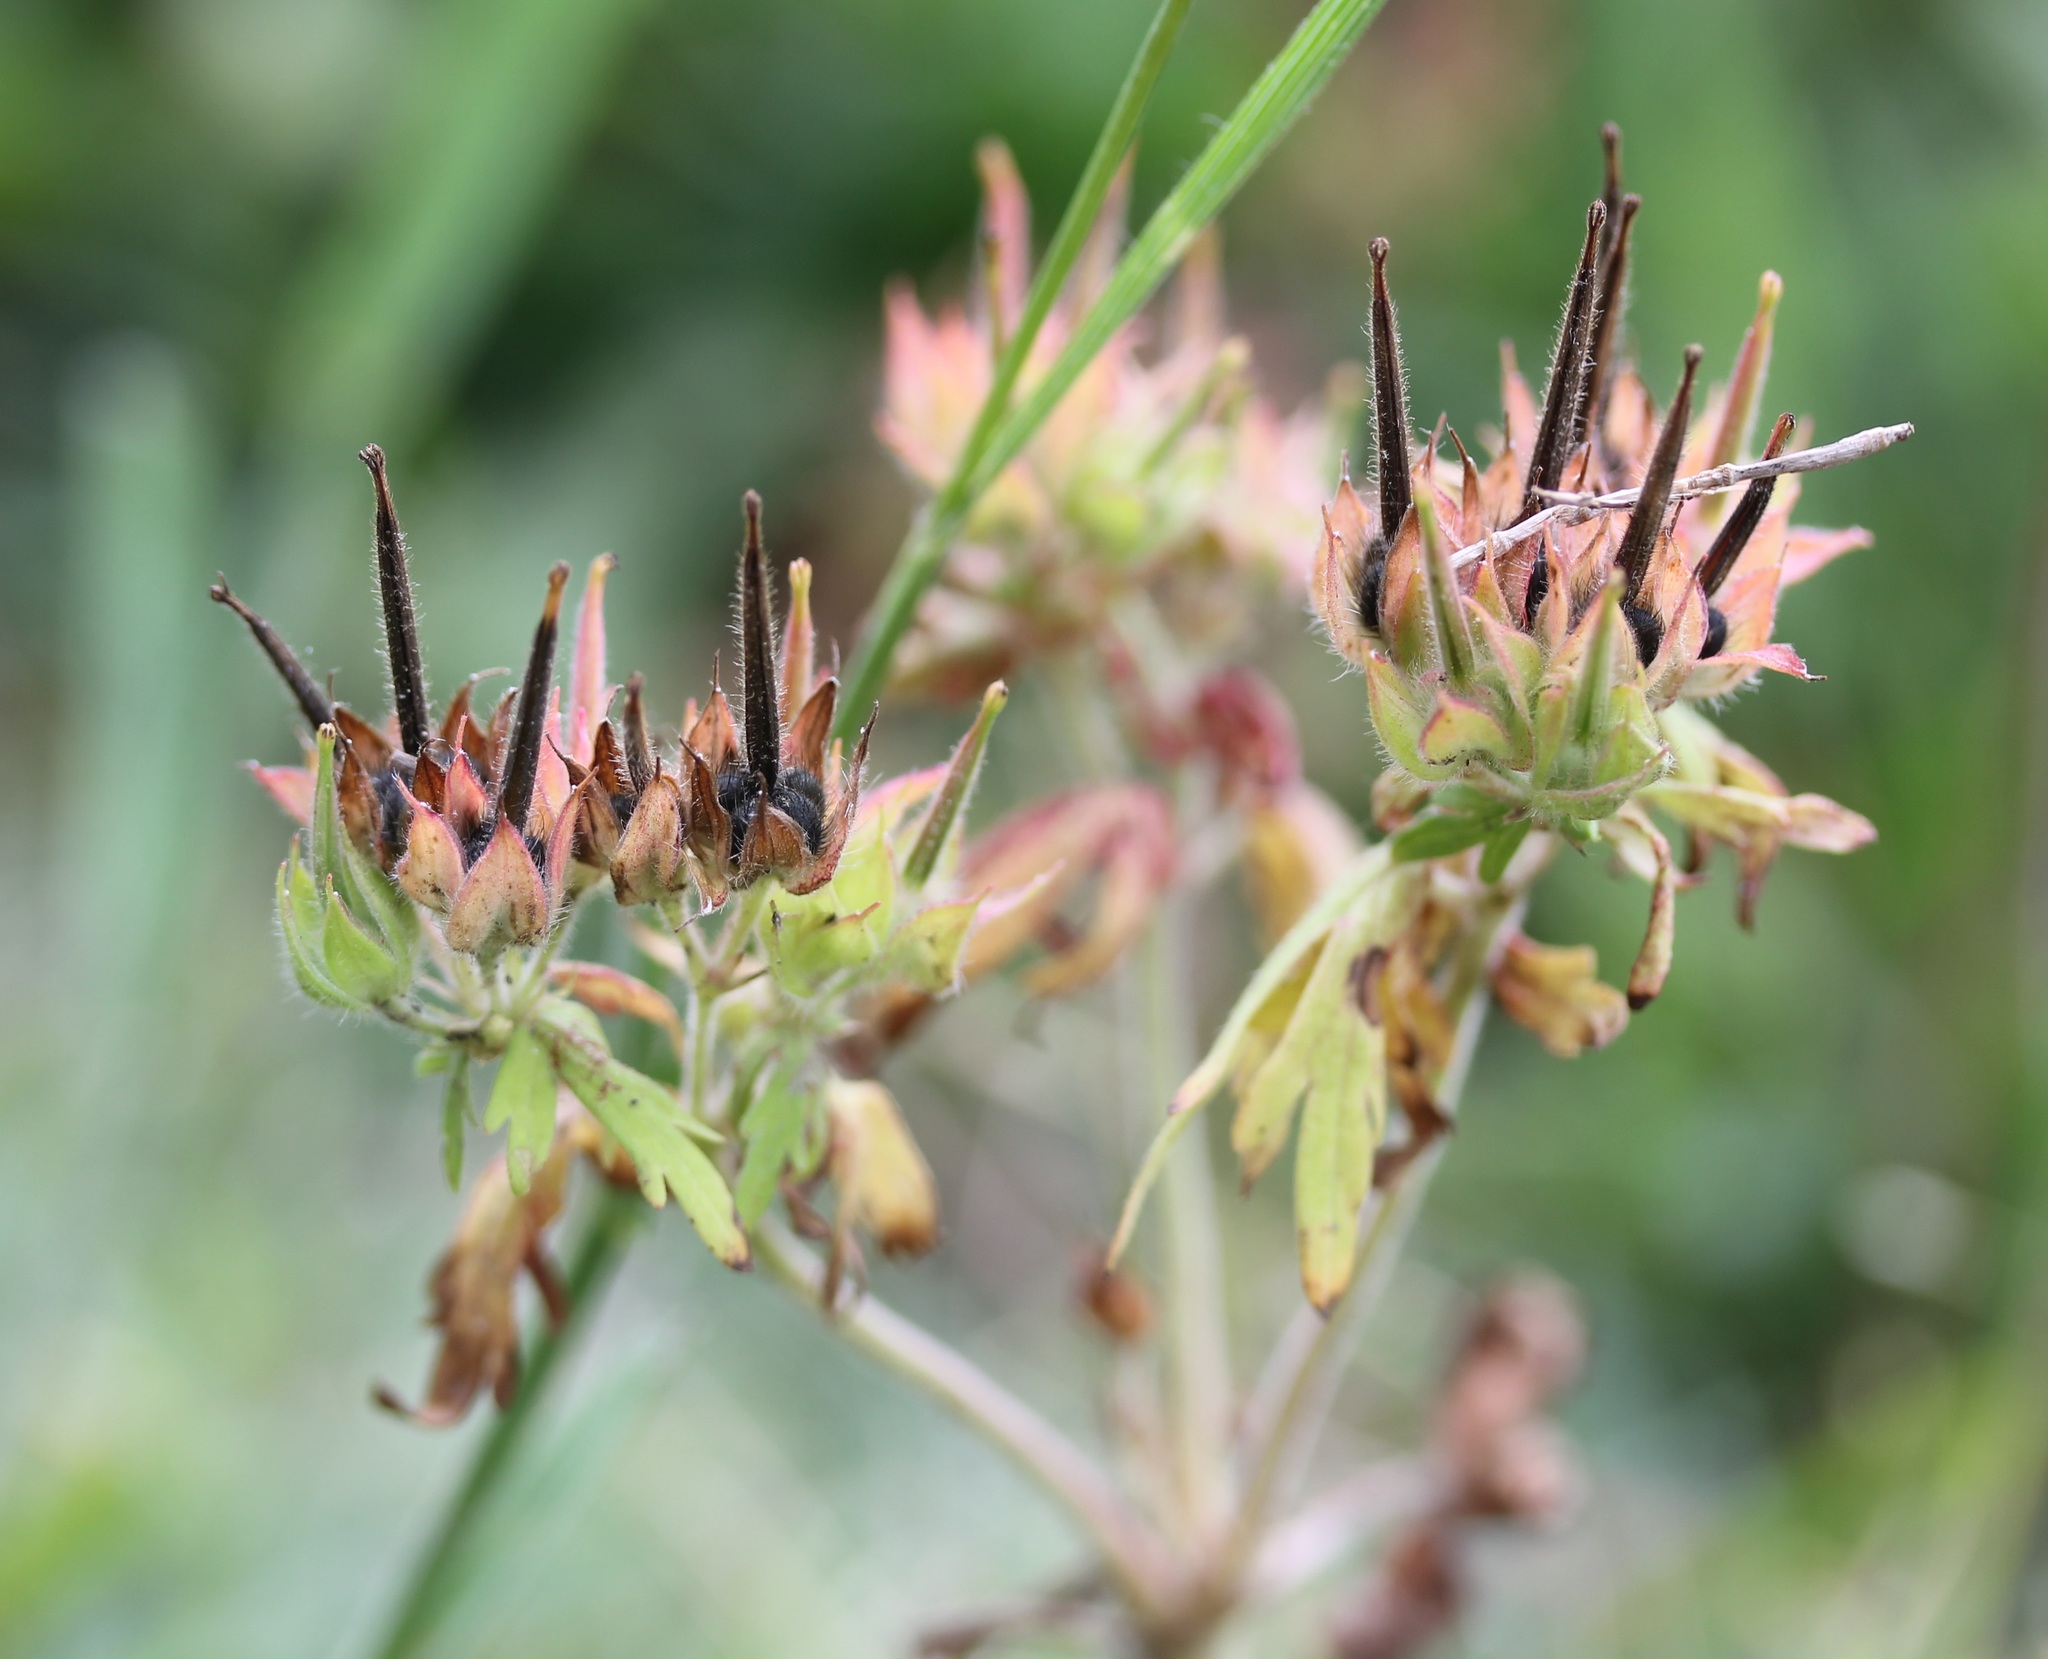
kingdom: Plantae
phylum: Tracheophyta
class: Magnoliopsida
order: Geraniales
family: Geraniaceae
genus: Geranium
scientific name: Geranium carolinianum
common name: Carolina crane's-bill
